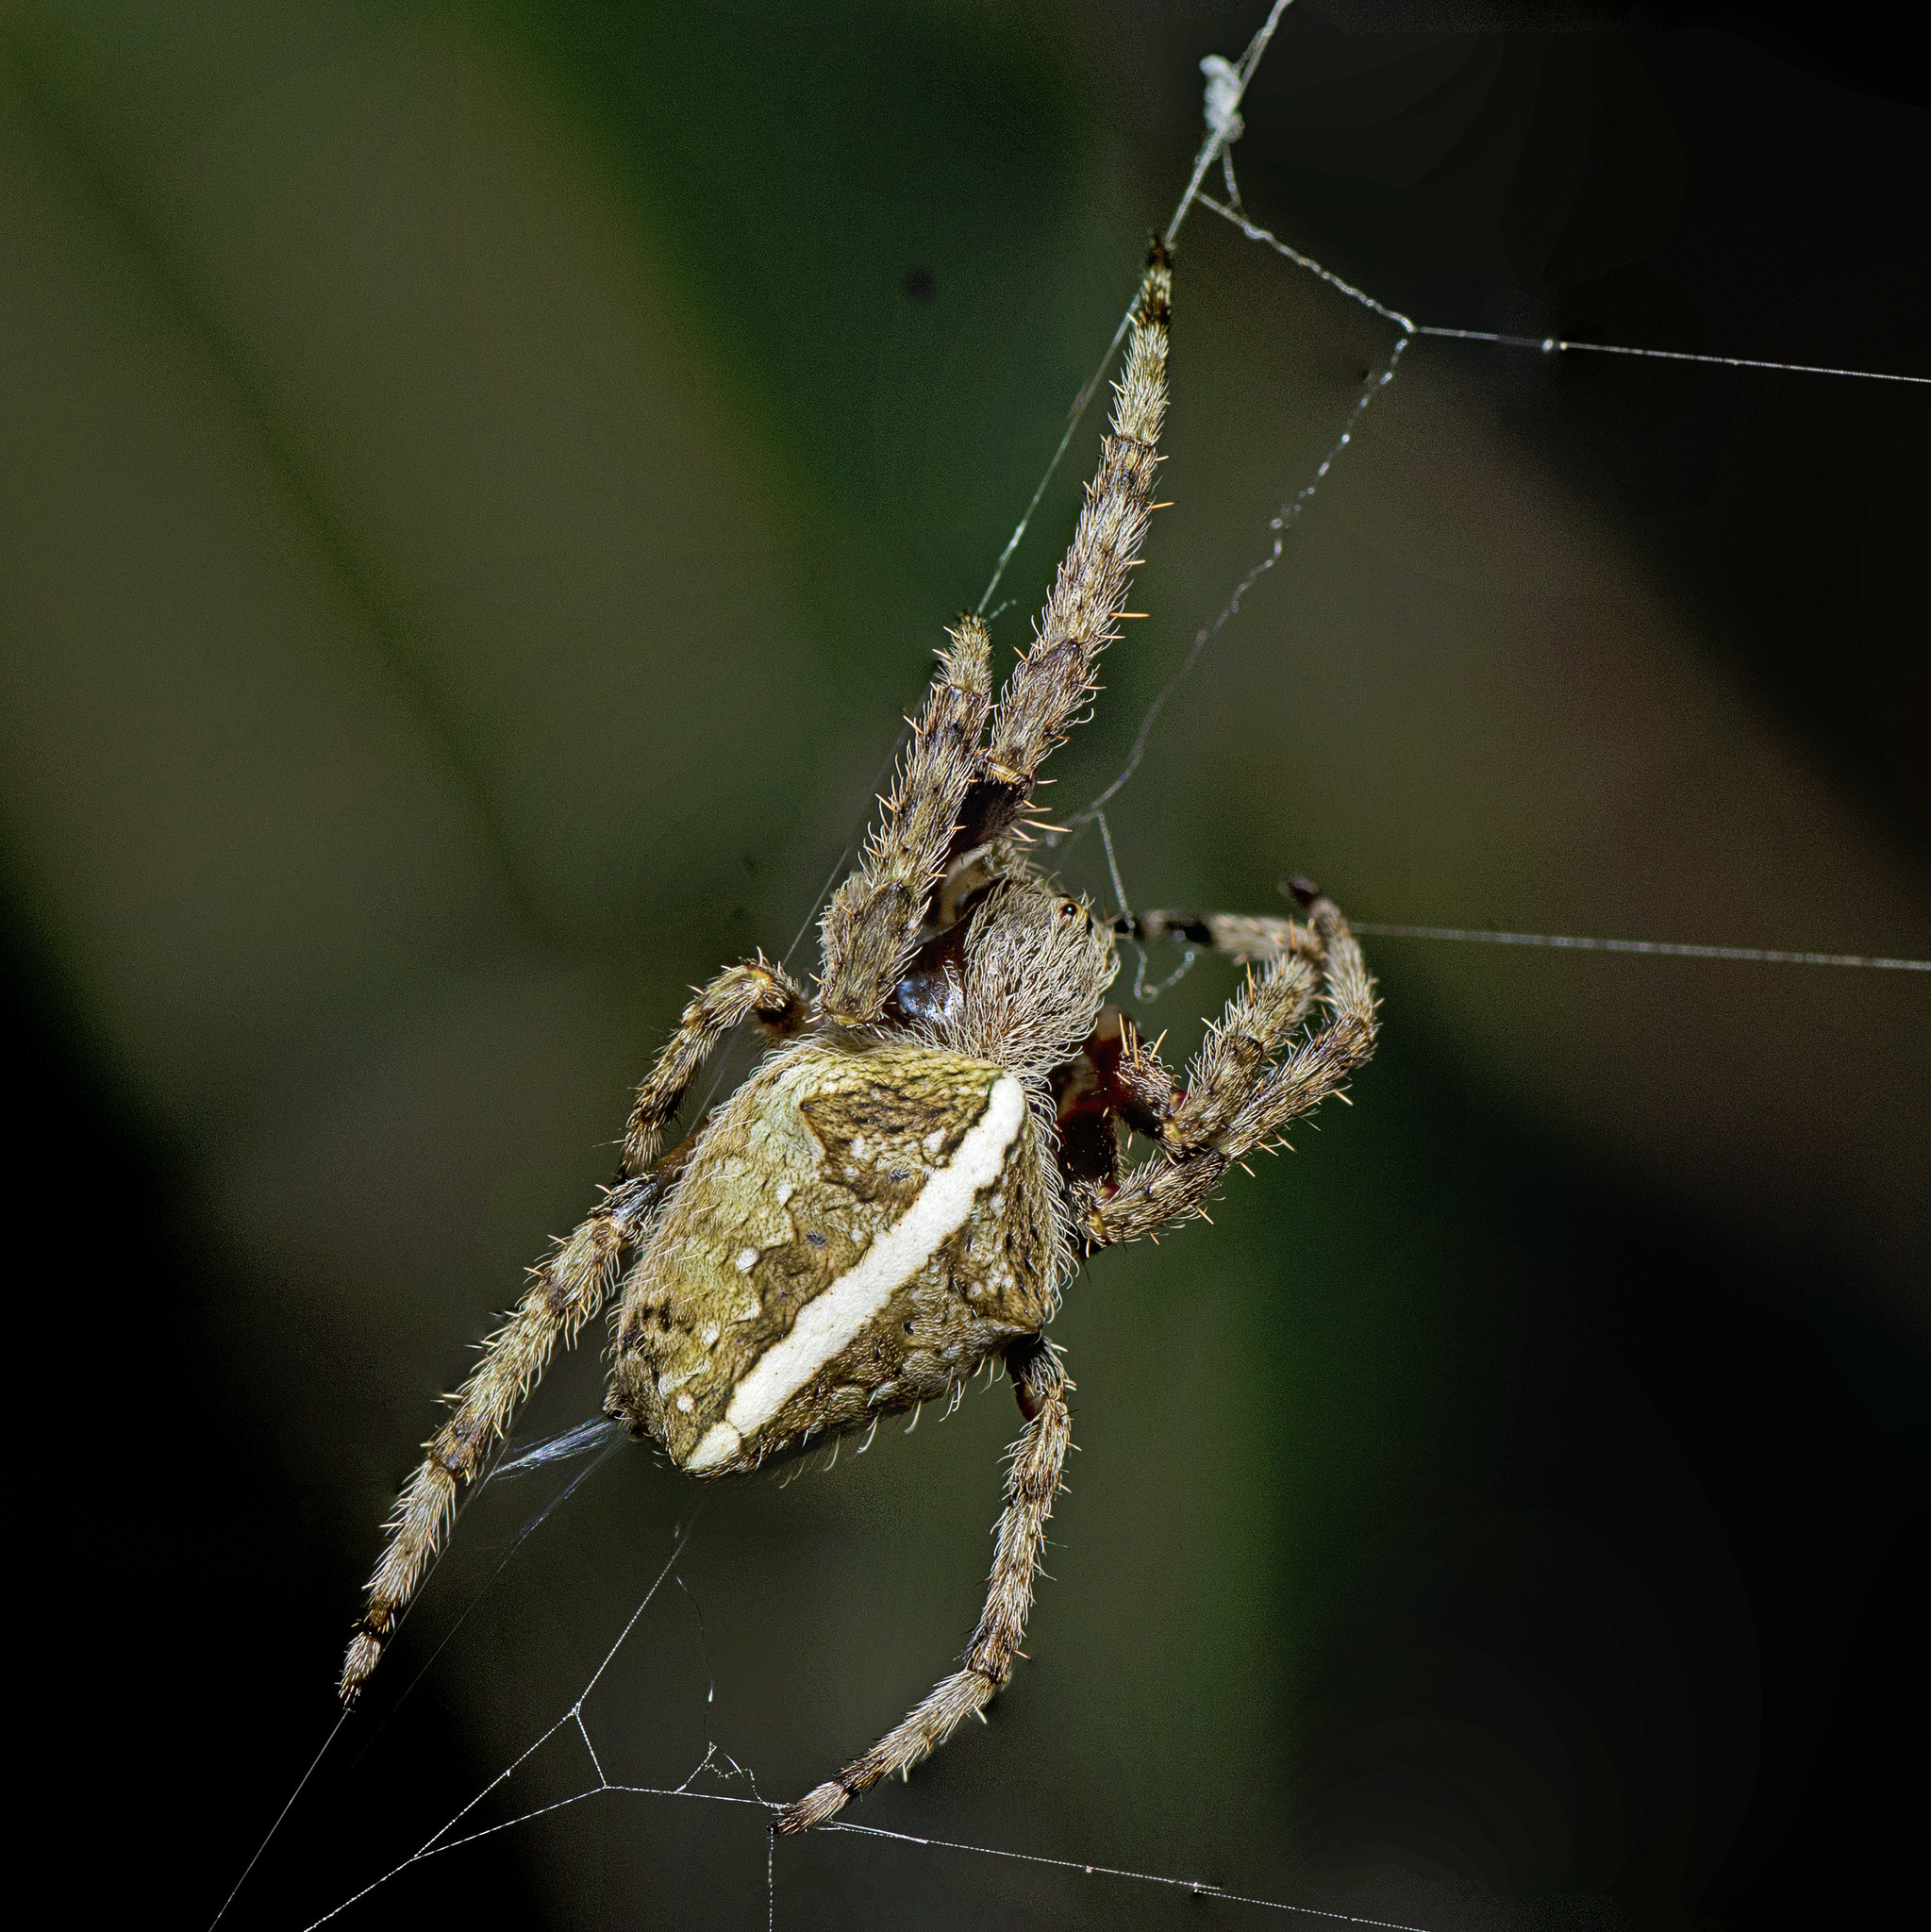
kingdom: Animalia
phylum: Arthropoda
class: Arachnida
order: Araneae
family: Araneidae
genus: Hortophora
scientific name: Hortophora transmarina
